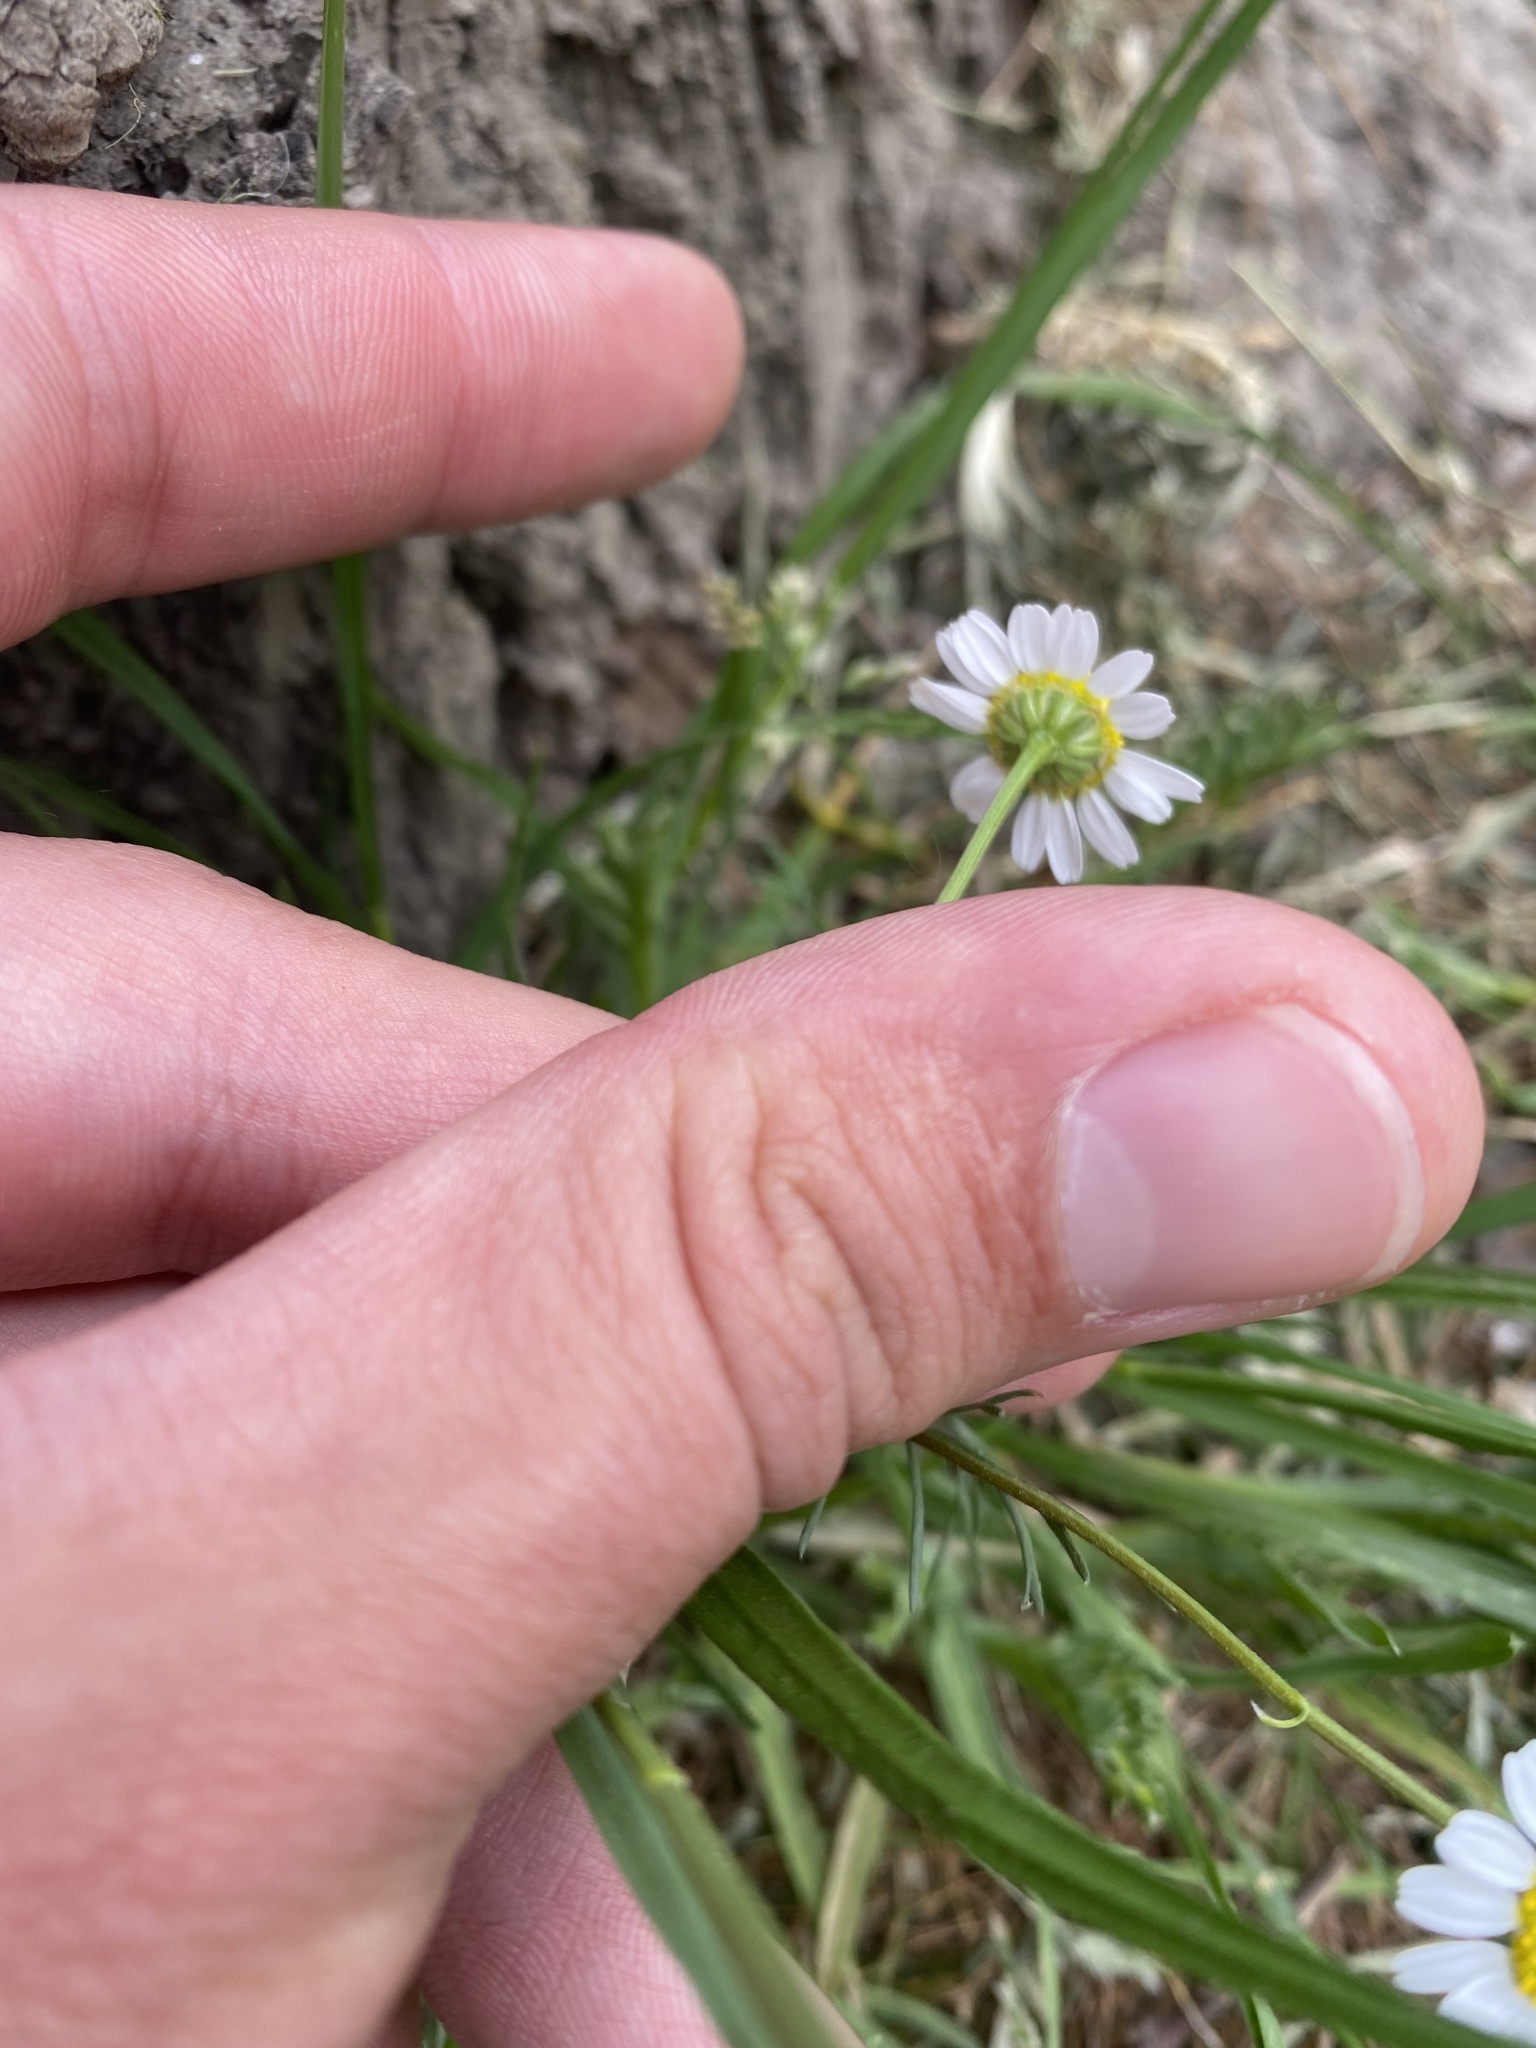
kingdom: Plantae
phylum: Tracheophyta
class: Magnoliopsida
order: Asterales
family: Asteraceae
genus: Matricaria
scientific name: Matricaria chamomilla
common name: Scented mayweed
